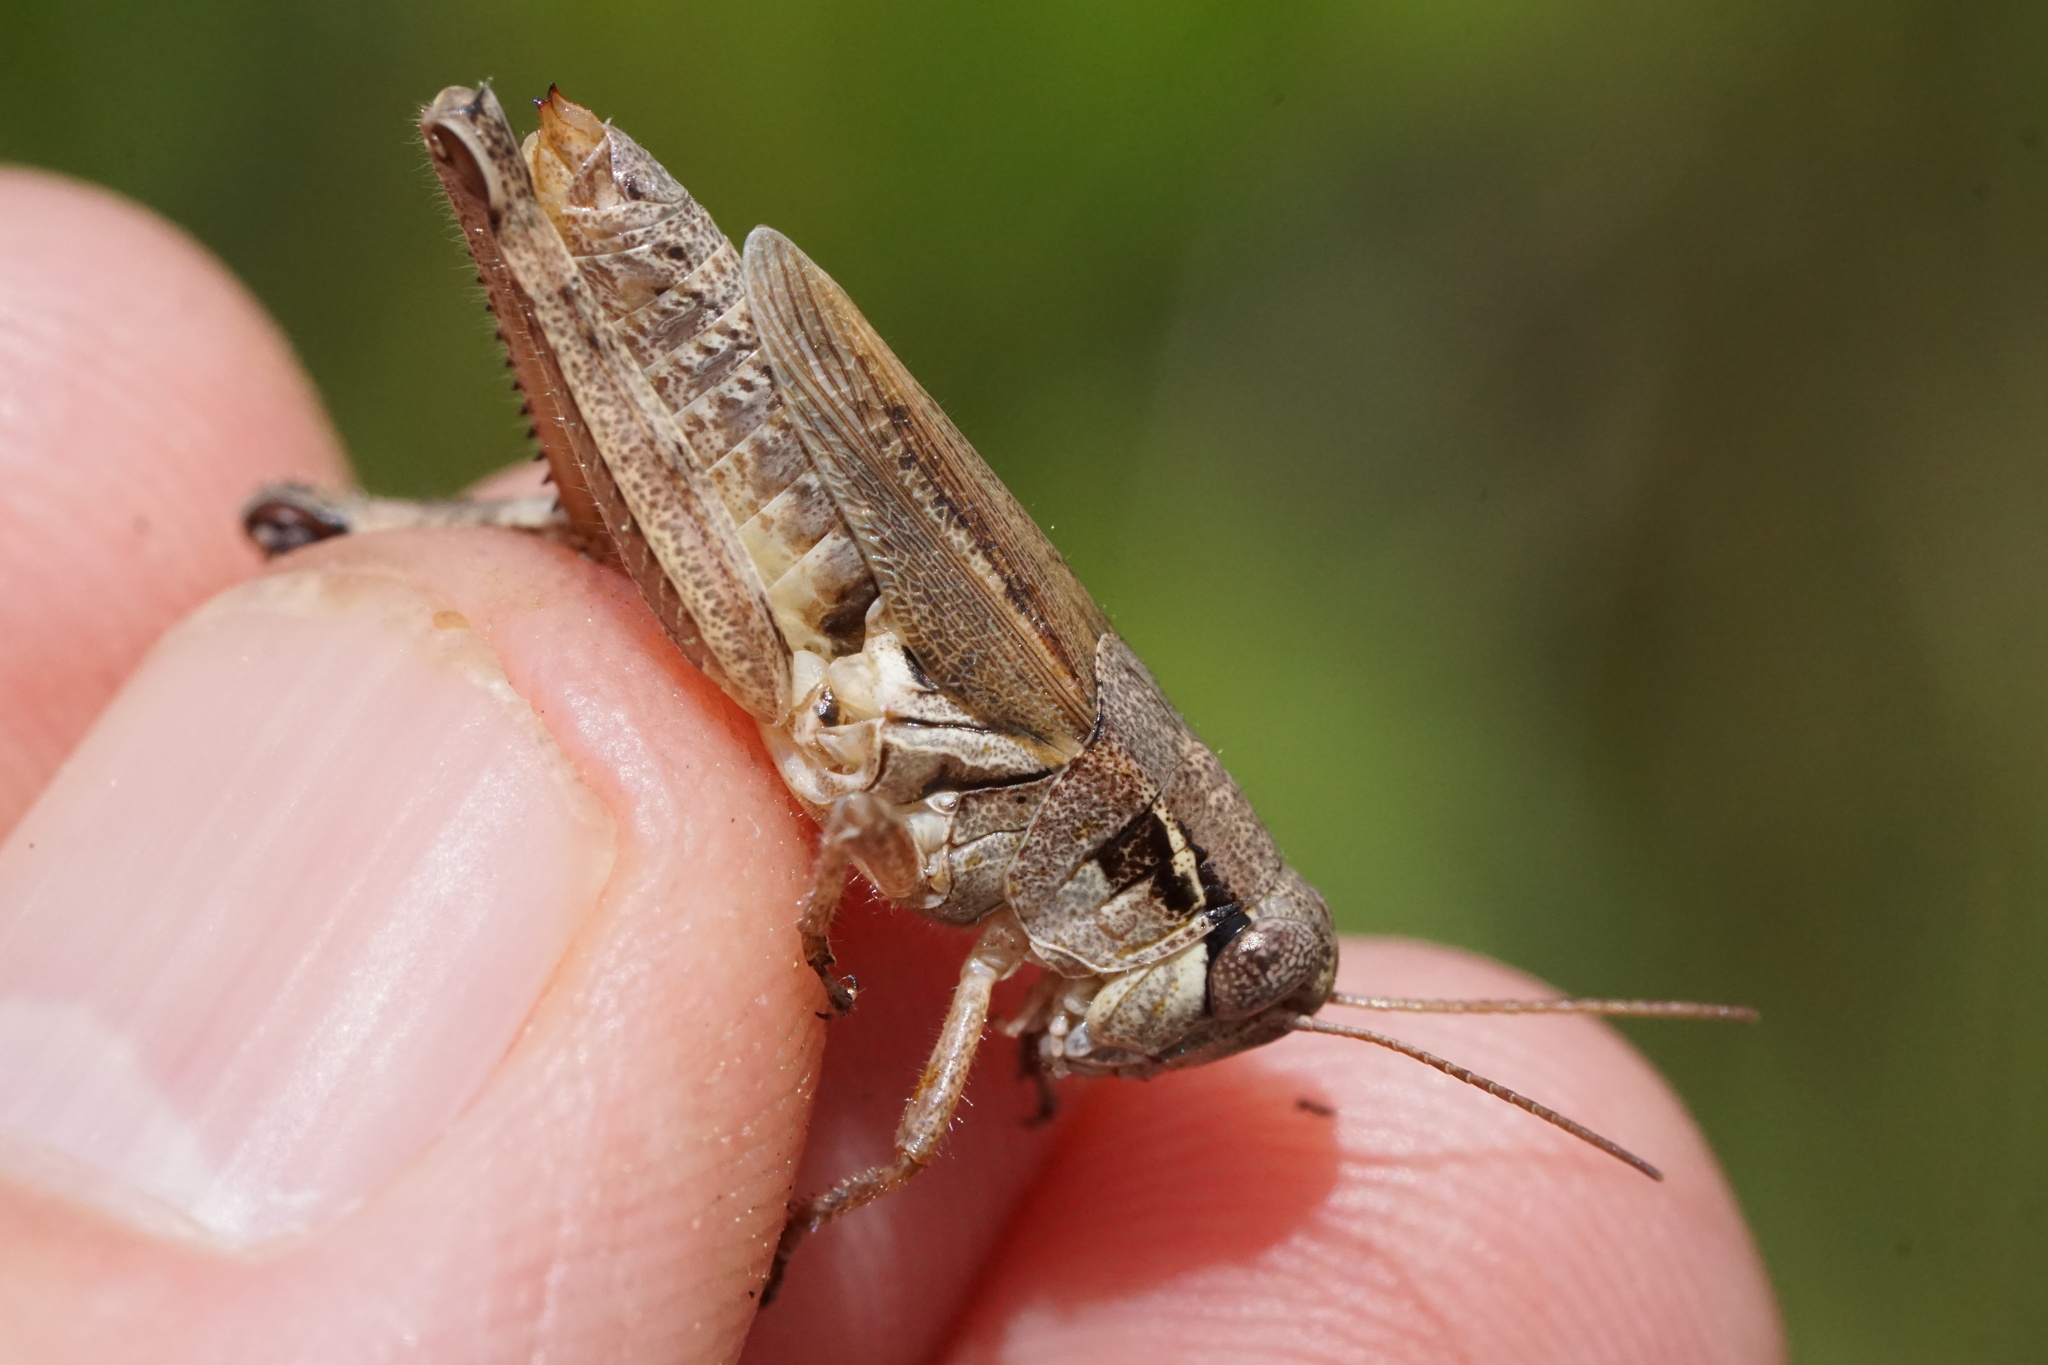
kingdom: Animalia
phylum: Arthropoda
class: Insecta
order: Orthoptera
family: Acrididae
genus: Melanoplus
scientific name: Melanoplus fasciatus
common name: Huckleberry locust
